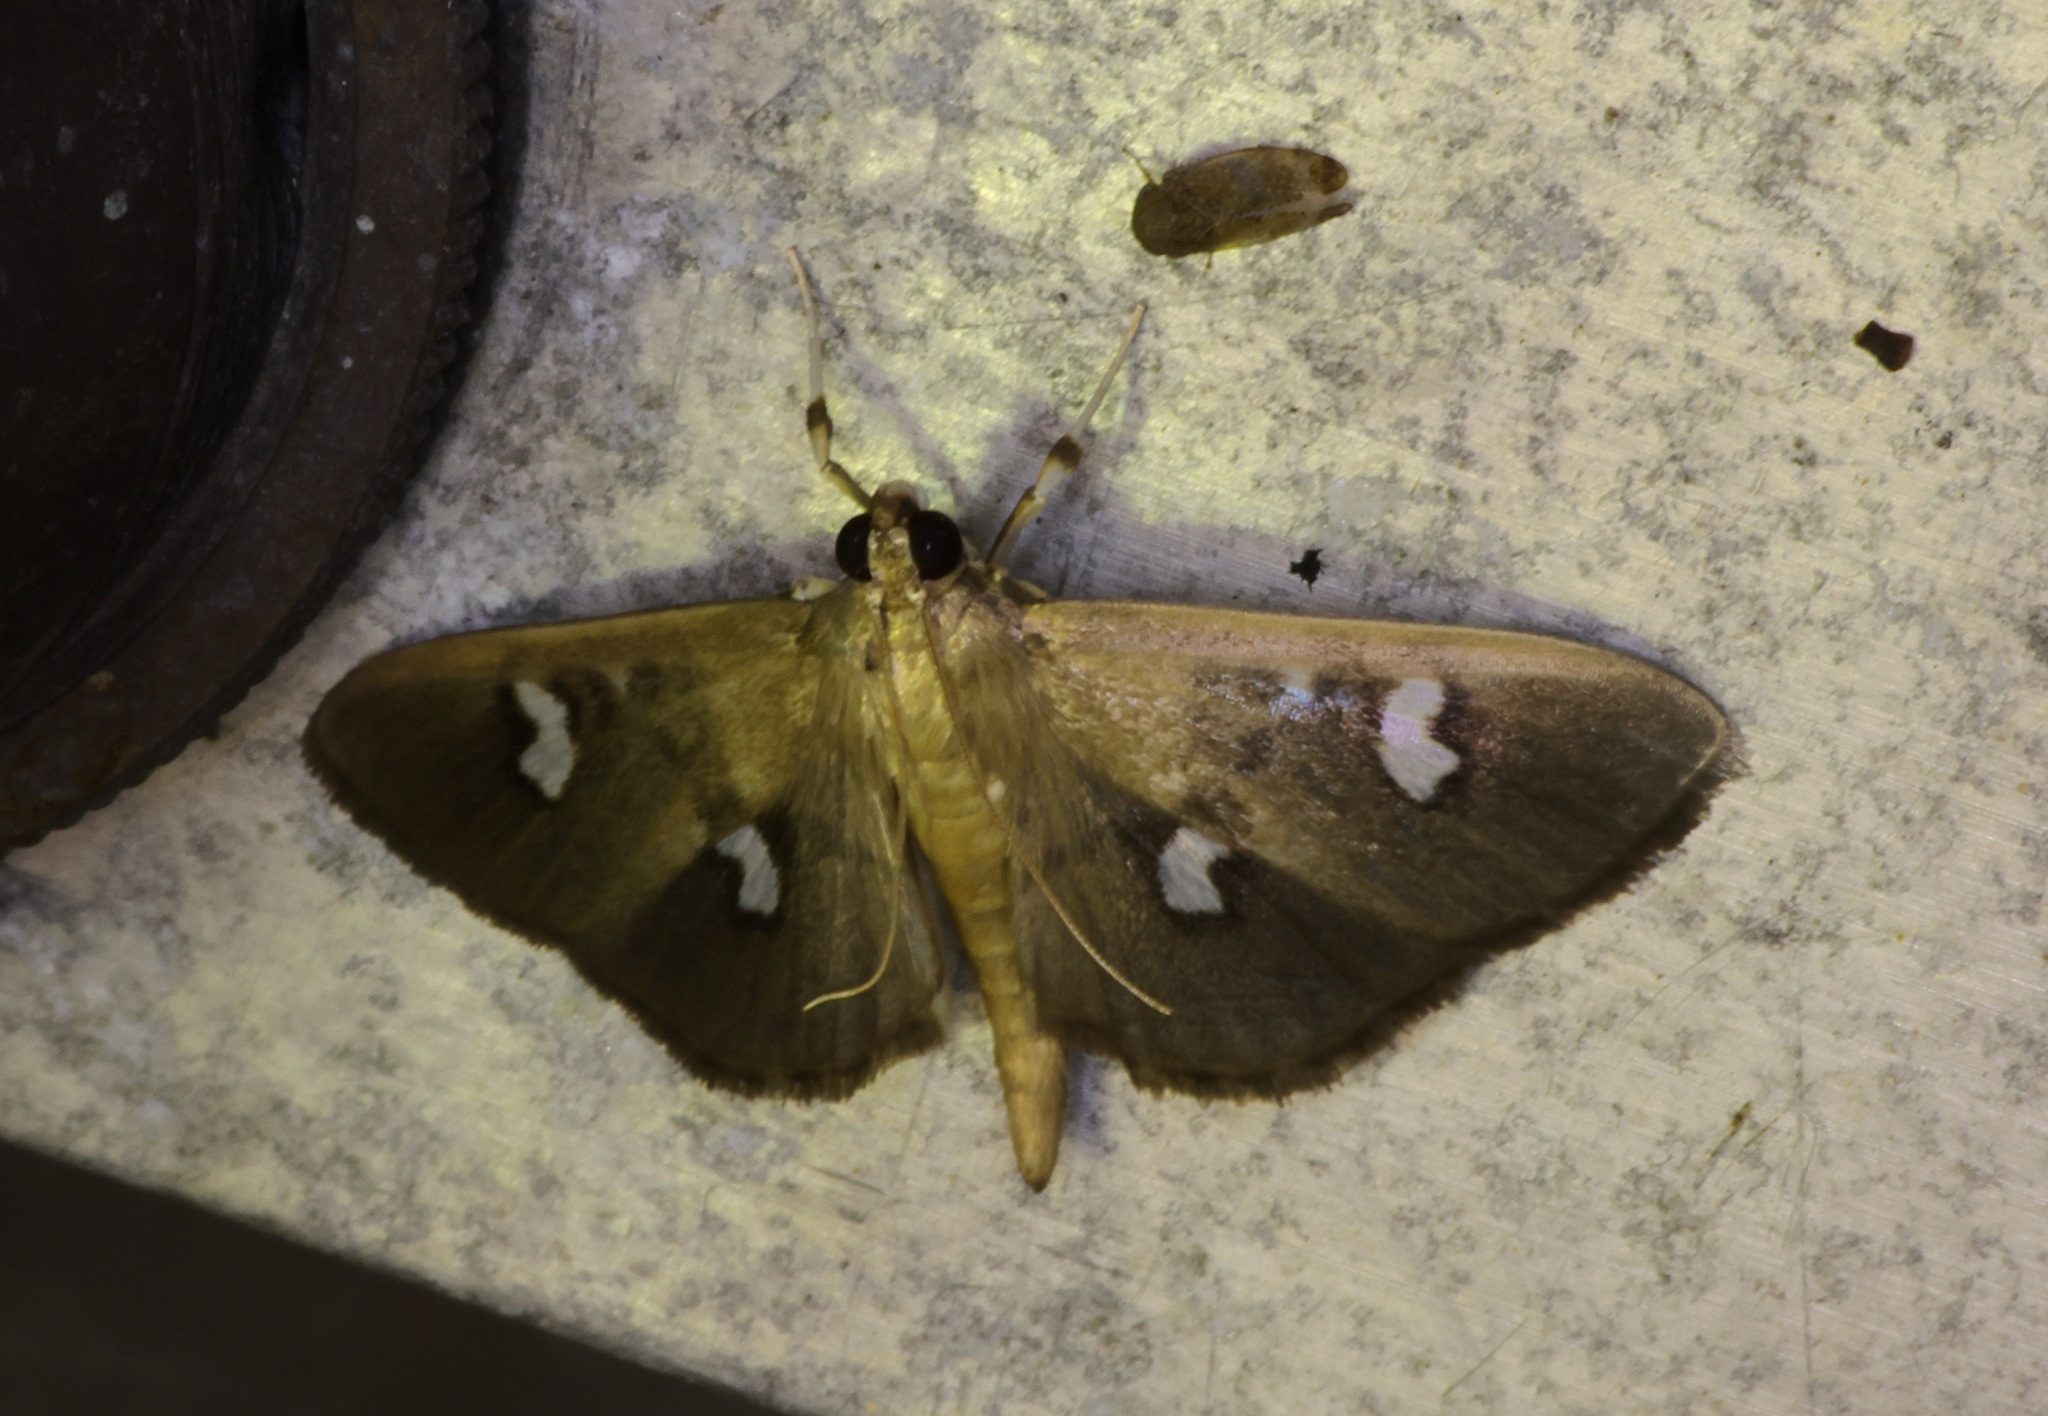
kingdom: Animalia
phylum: Arthropoda
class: Insecta
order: Lepidoptera
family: Crambidae
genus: Nagiella
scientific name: Nagiella inferior
